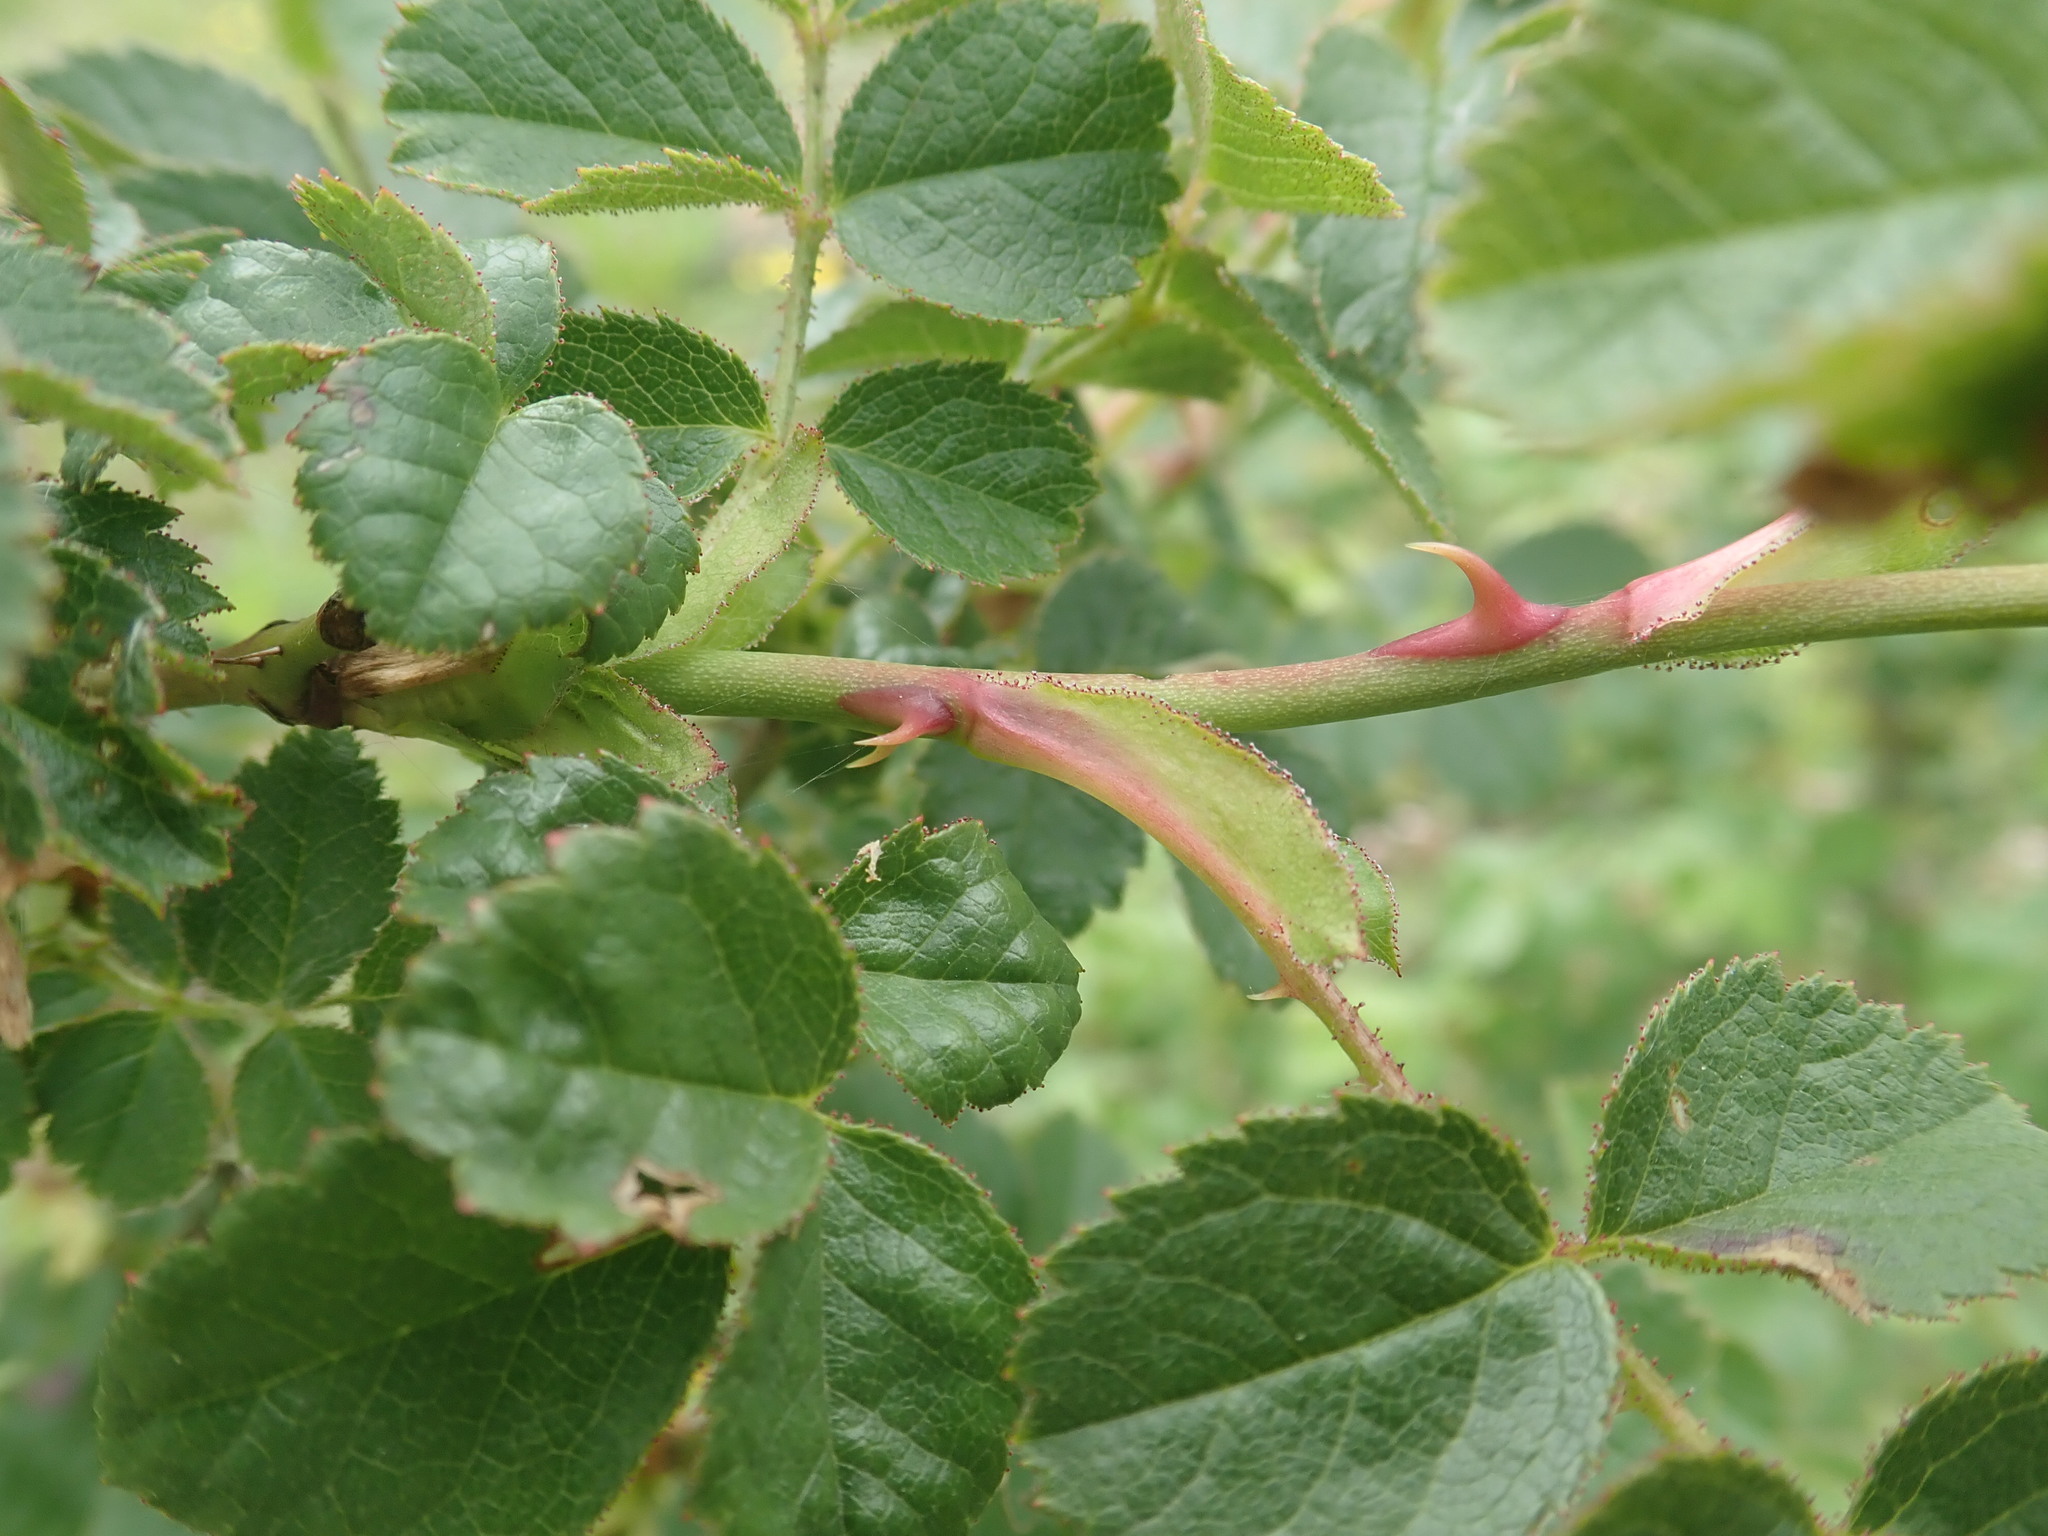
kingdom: Plantae
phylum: Tracheophyta
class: Magnoliopsida
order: Rosales
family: Rosaceae
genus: Rosa
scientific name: Rosa rubiginosa
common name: Sweet-briar
